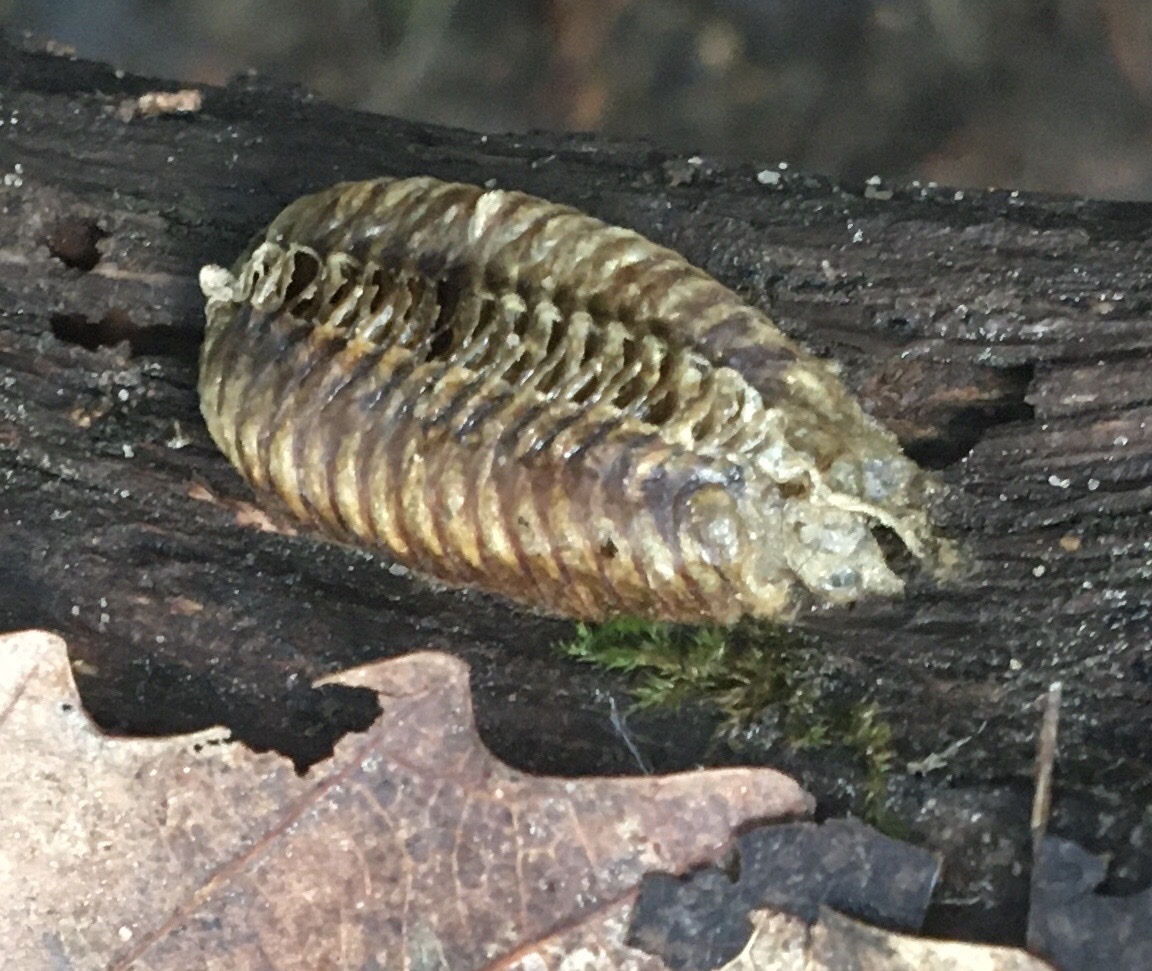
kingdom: Animalia
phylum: Arthropoda
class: Insecta
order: Mantodea
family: Mantidae
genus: Stagmomantis
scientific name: Stagmomantis carolina
